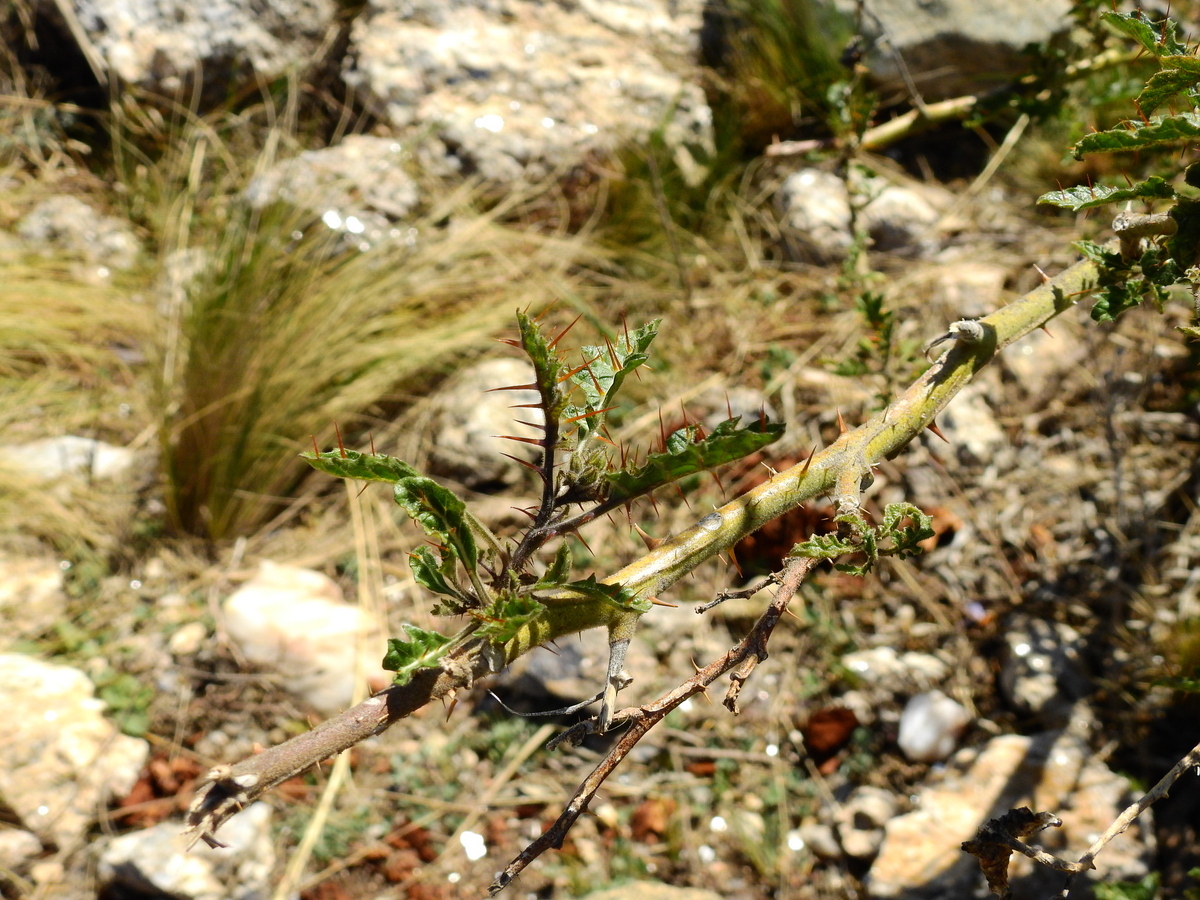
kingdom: Plantae
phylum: Tracheophyta
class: Magnoliopsida
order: Solanales
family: Solanaceae
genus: Solanum
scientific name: Solanum sisymbriifolium
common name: Red buffalo-bur
